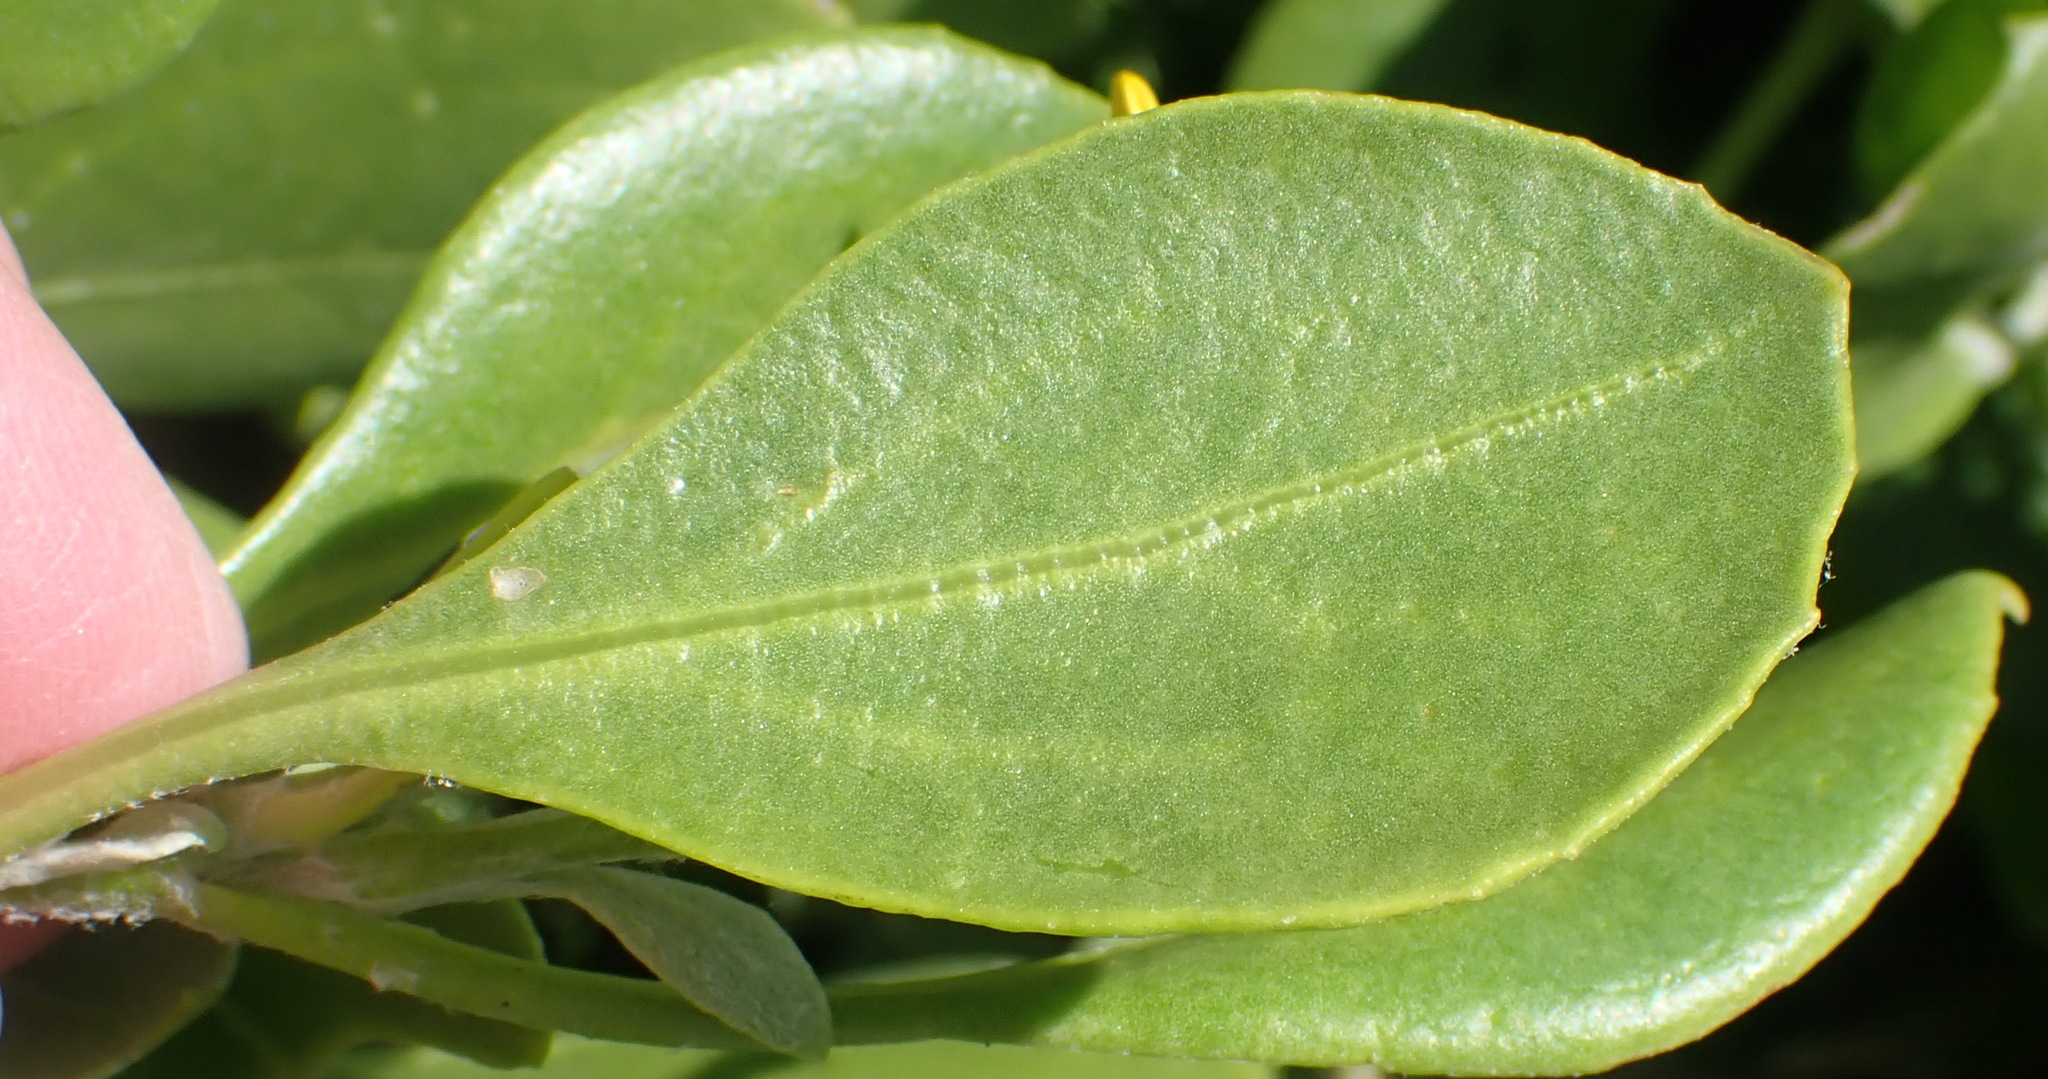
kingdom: Plantae
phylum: Tracheophyta
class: Magnoliopsida
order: Asterales
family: Asteraceae
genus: Osteospermum
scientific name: Osteospermum moniliferum
